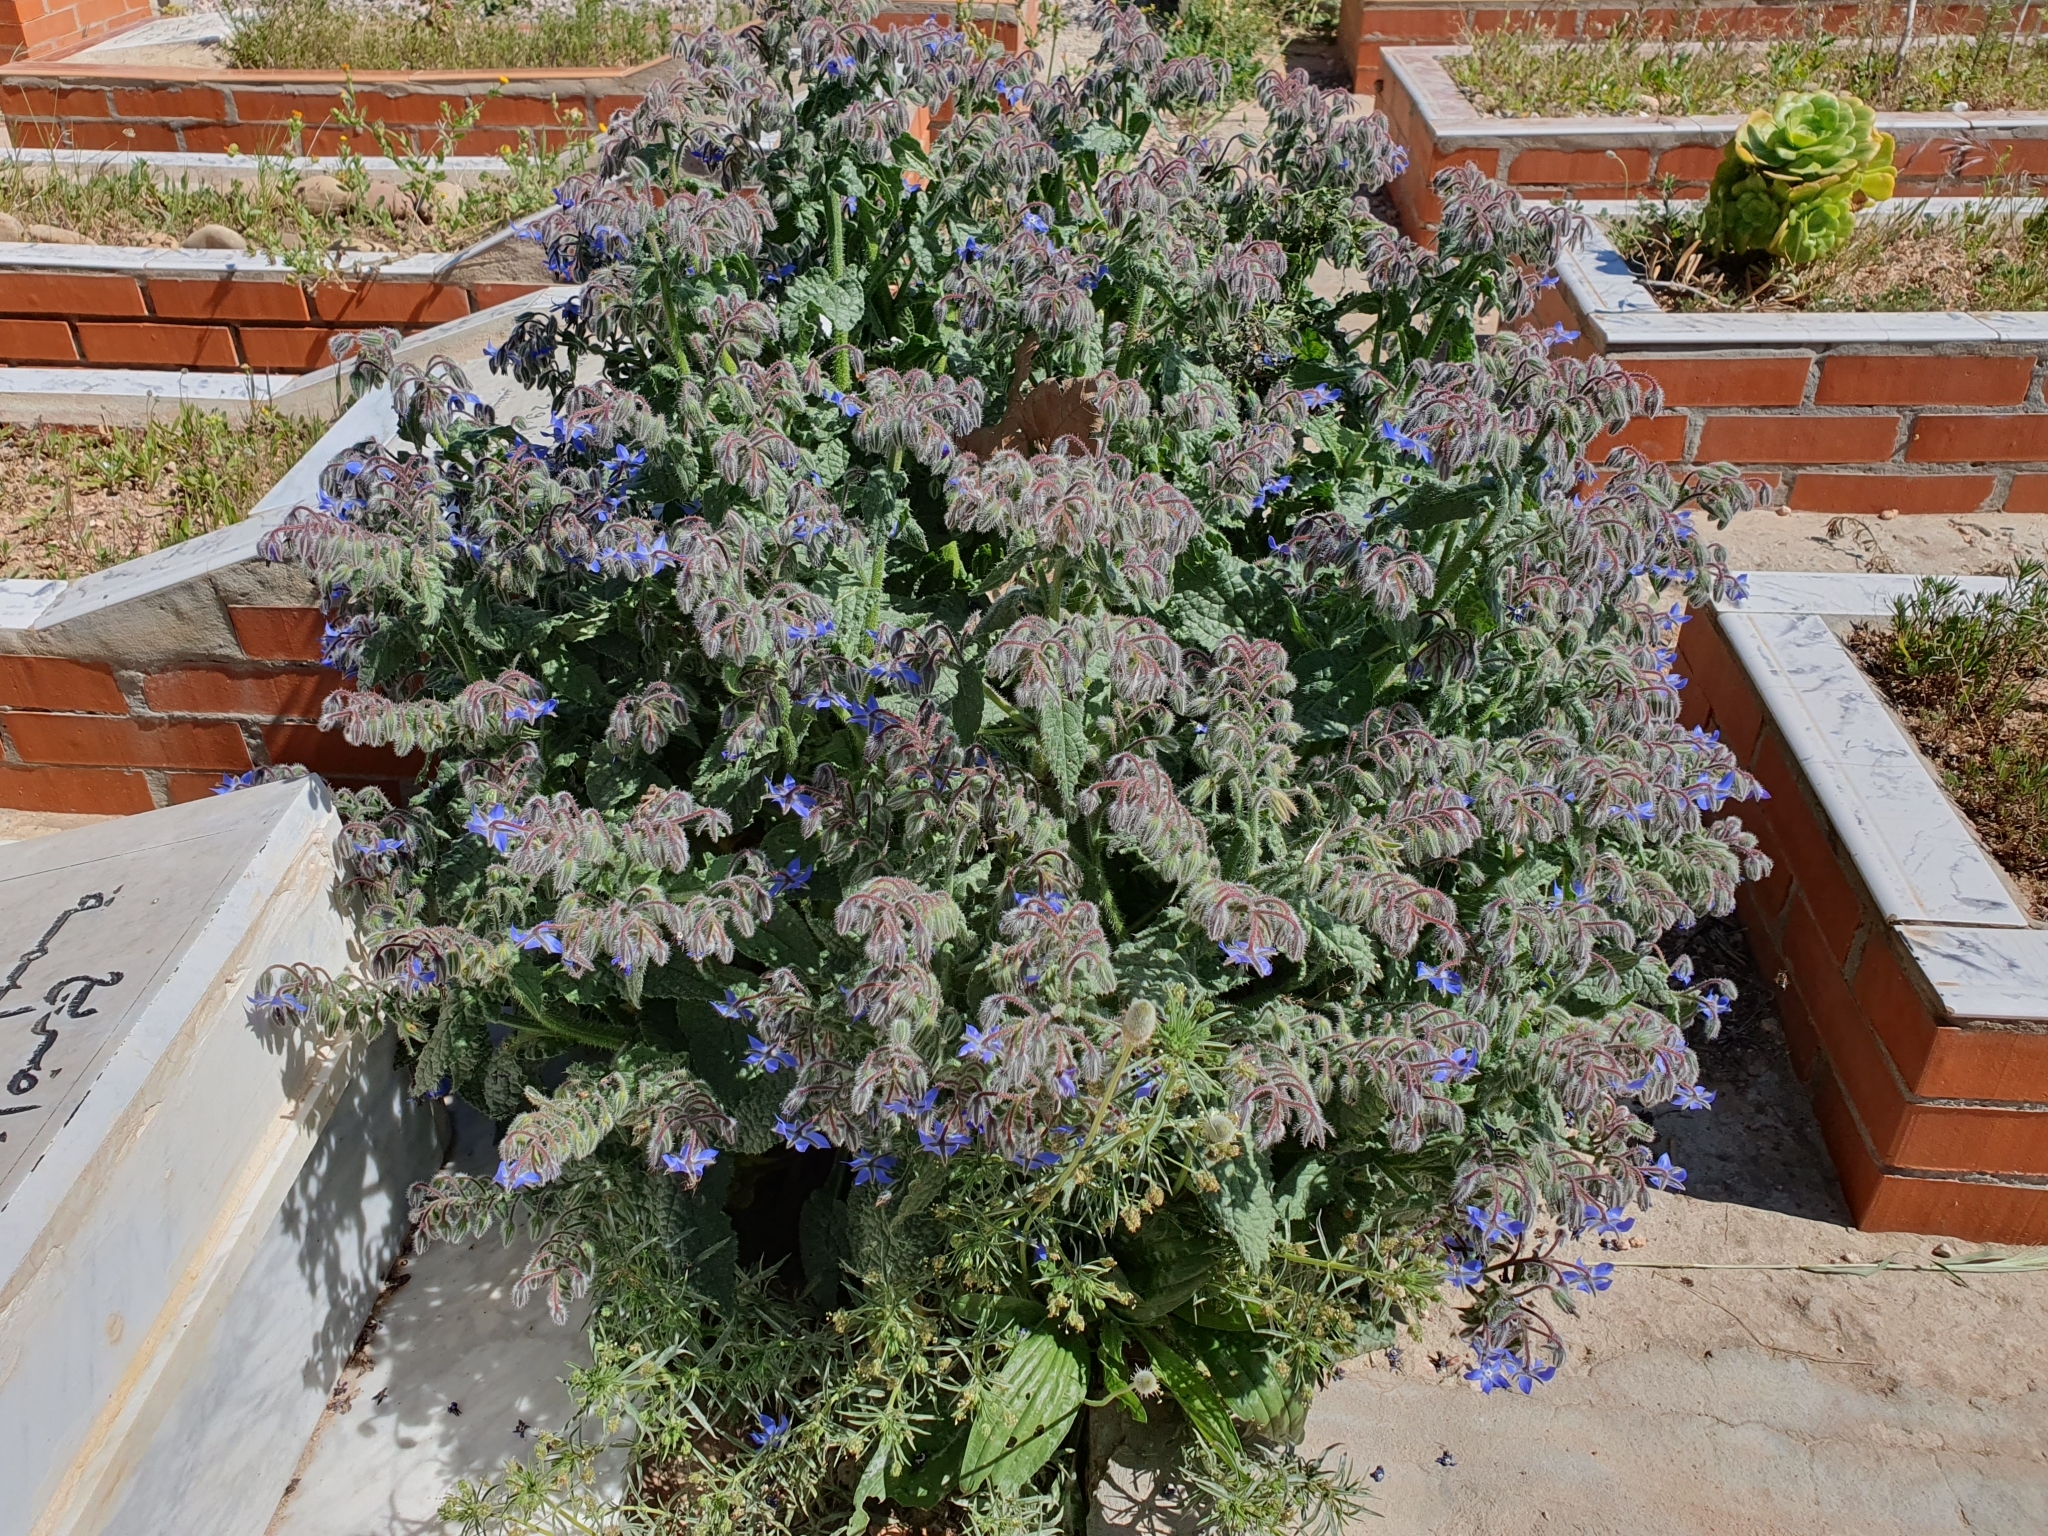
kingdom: Plantae
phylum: Tracheophyta
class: Magnoliopsida
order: Boraginales
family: Boraginaceae
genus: Borago
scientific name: Borago officinalis
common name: Borage
